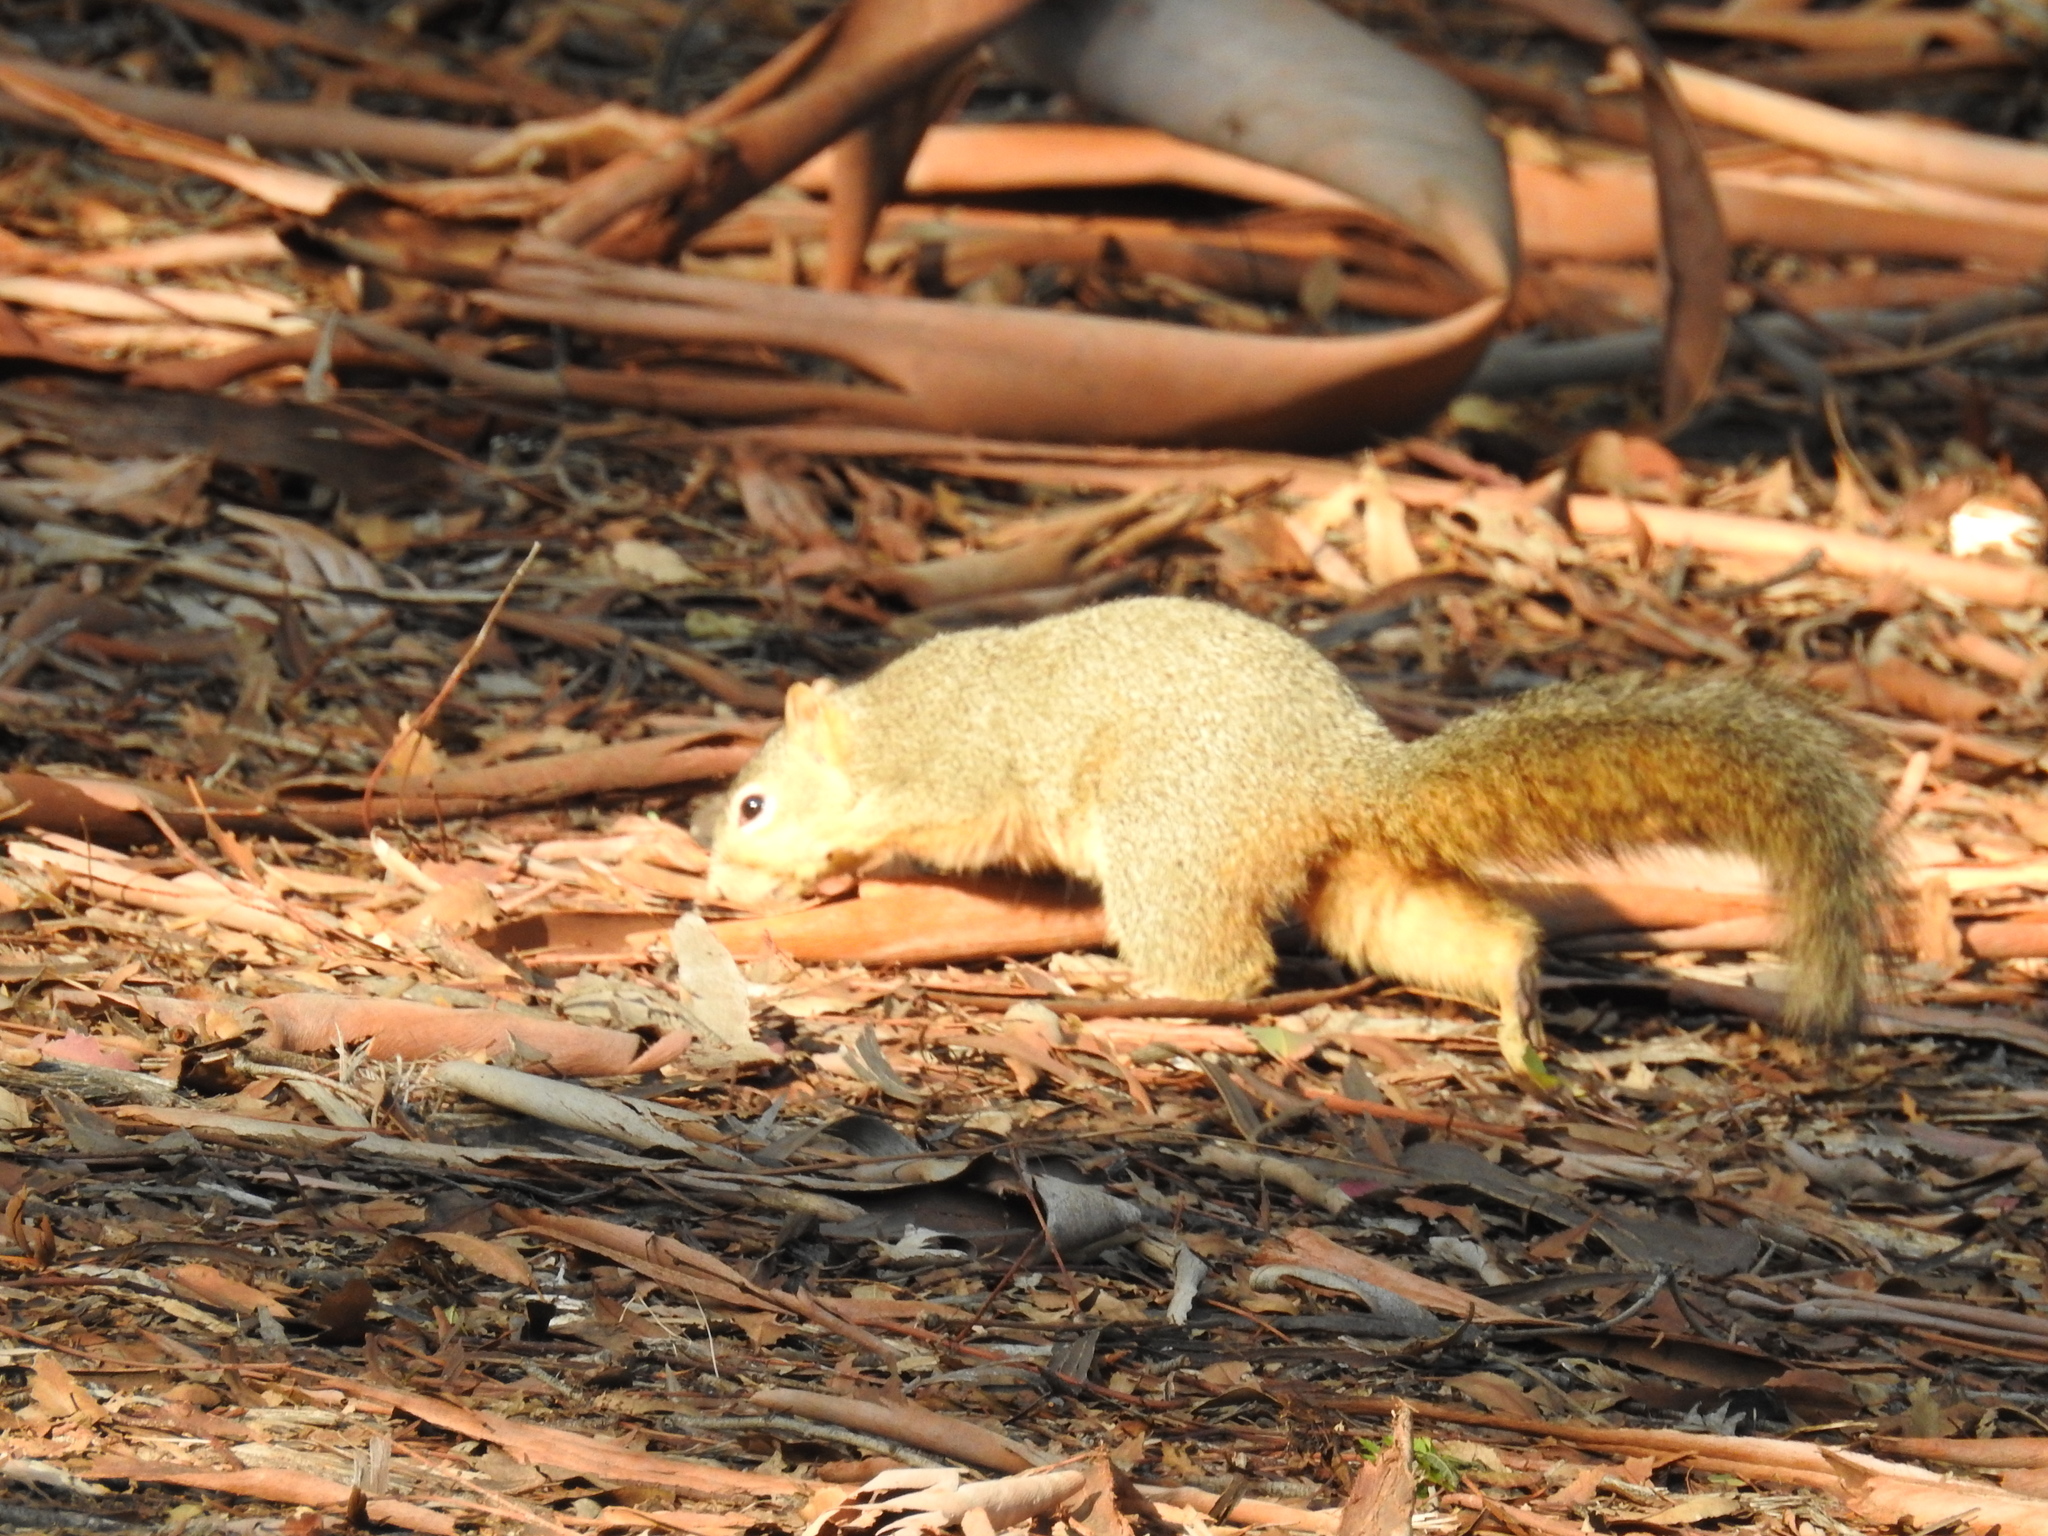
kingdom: Animalia
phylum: Chordata
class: Mammalia
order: Rodentia
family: Sciuridae
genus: Sciurus
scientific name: Sciurus niger
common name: Fox squirrel
